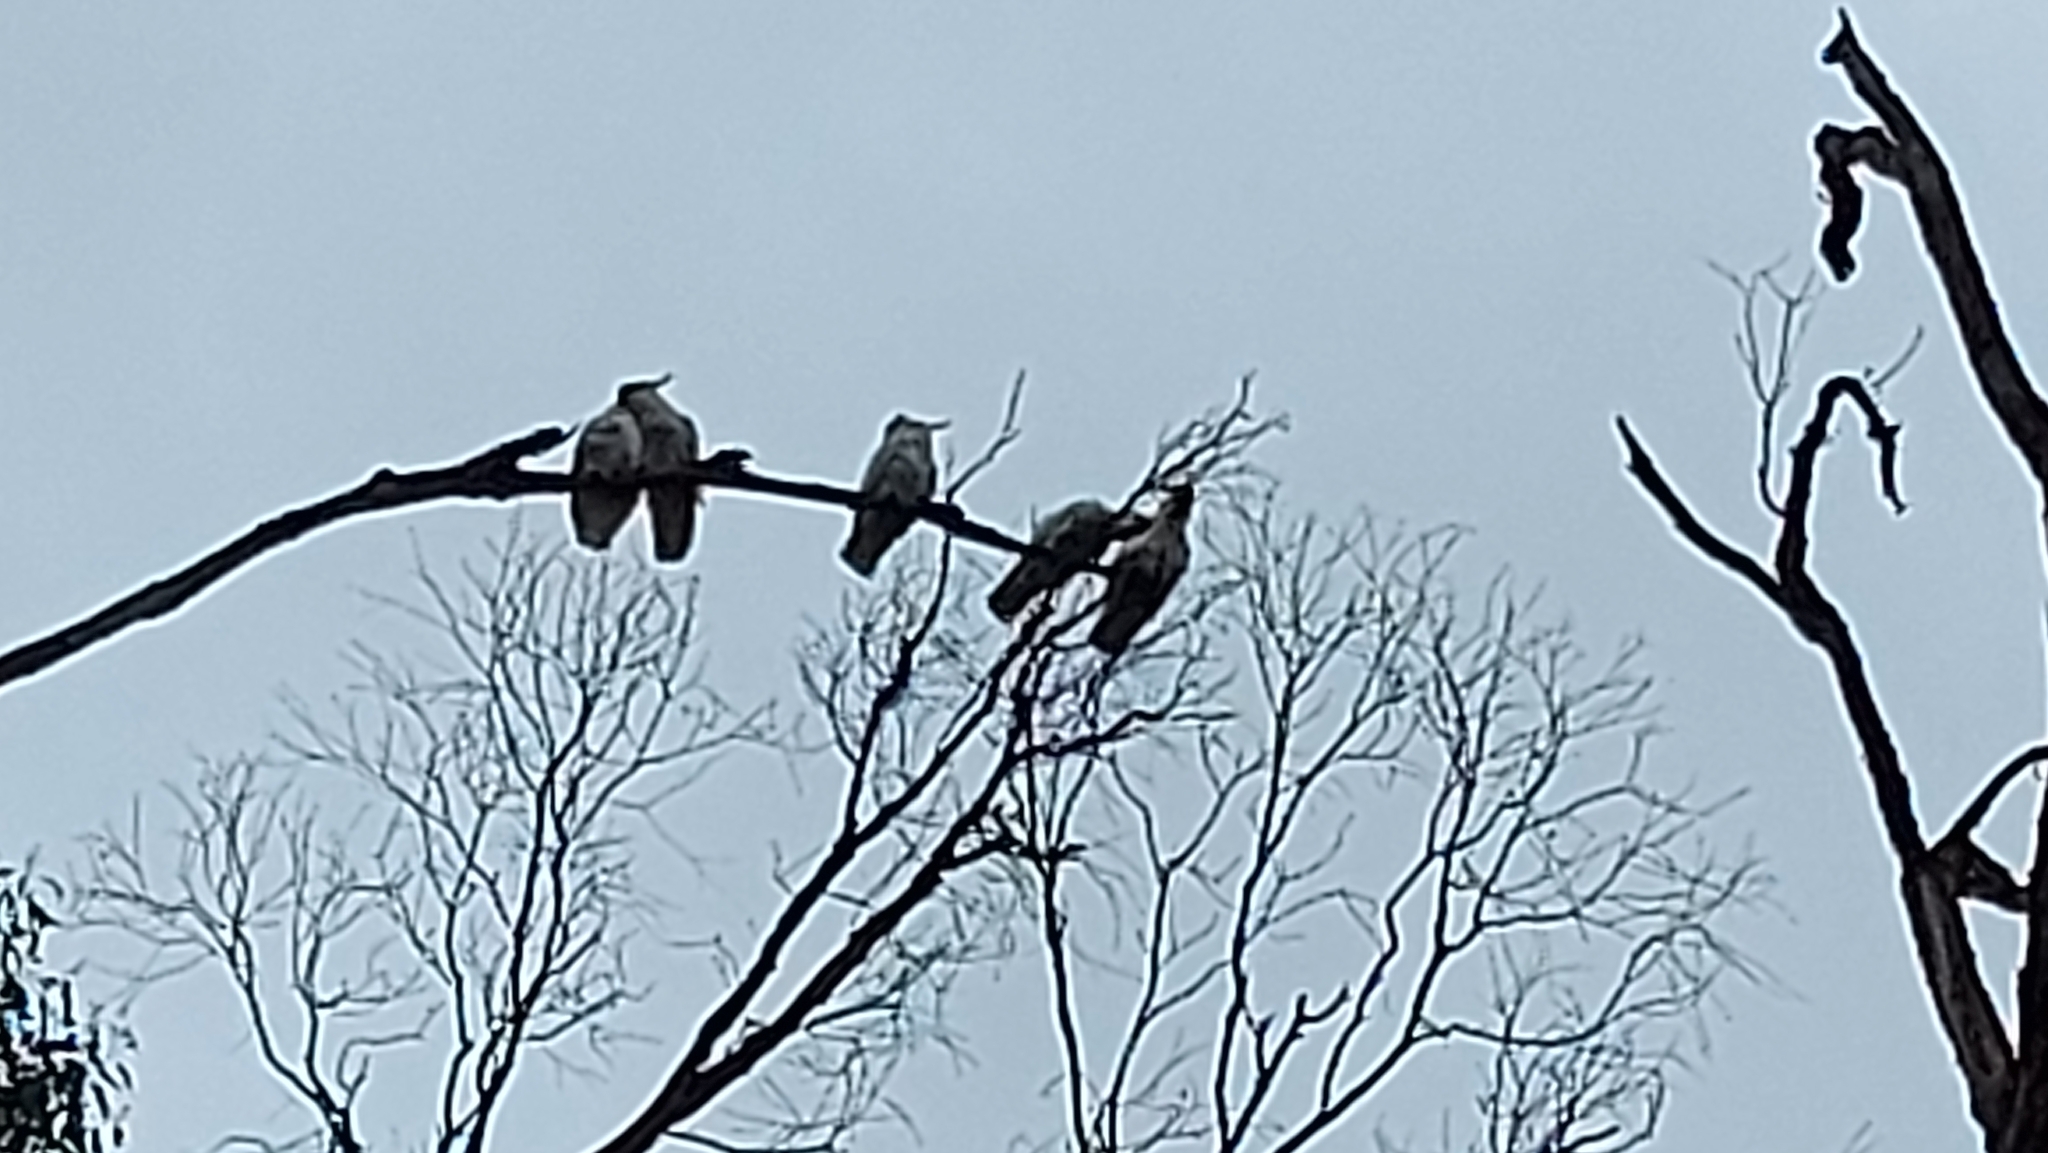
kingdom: Animalia
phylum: Chordata
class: Aves
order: Psittaciformes
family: Psittacidae
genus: Cacatua
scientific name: Cacatua galerita
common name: Sulphur-crested cockatoo
